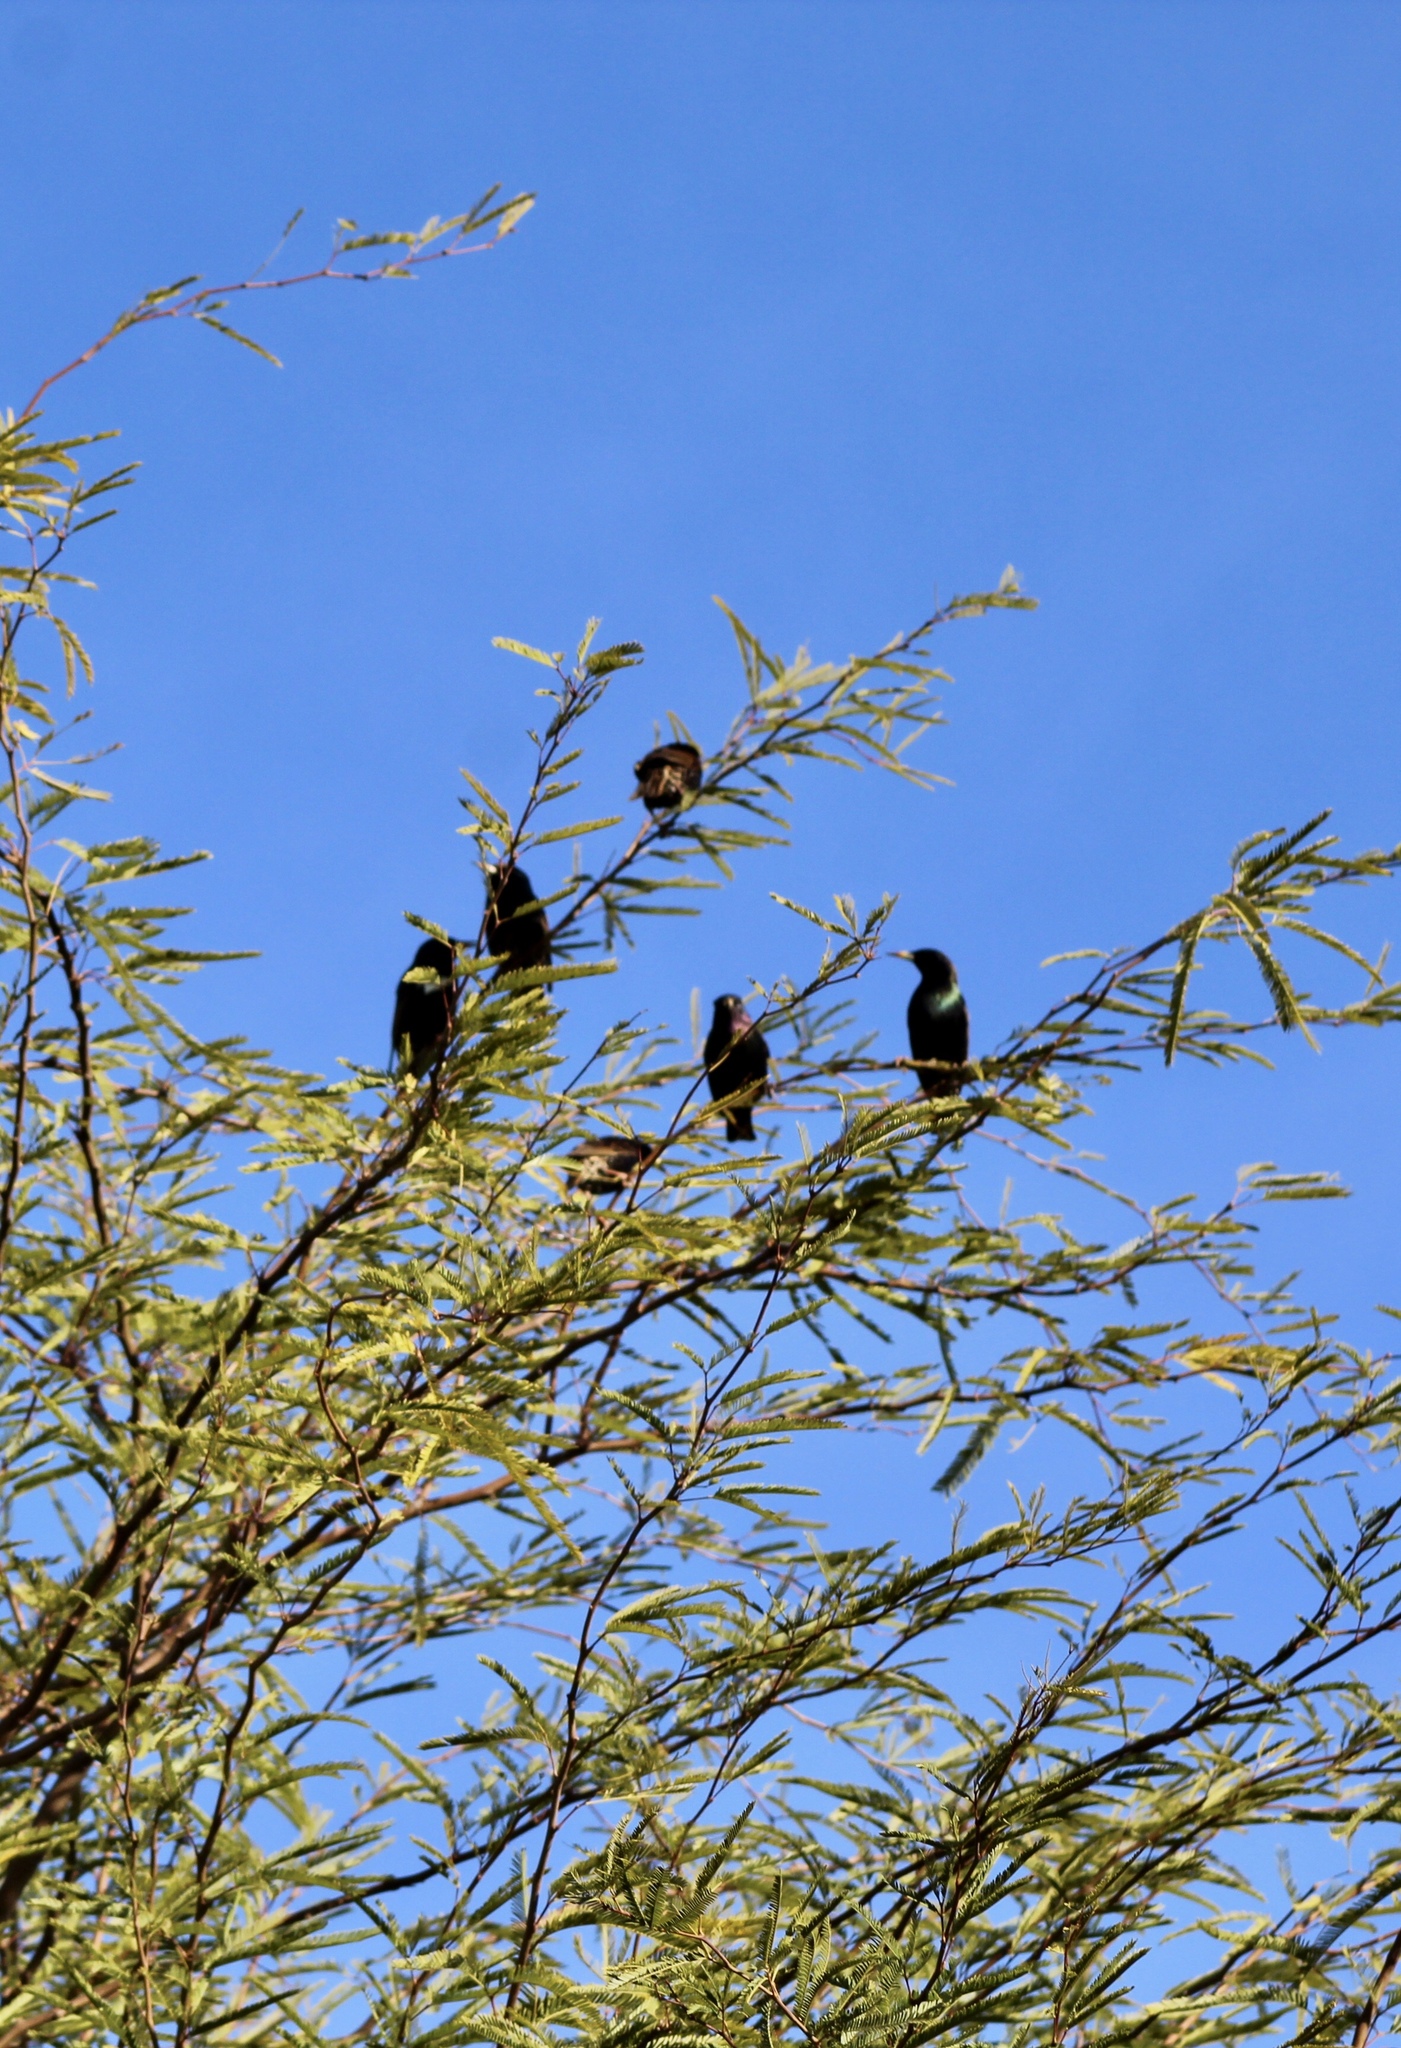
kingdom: Animalia
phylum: Chordata
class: Aves
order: Passeriformes
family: Sturnidae
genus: Sturnus
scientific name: Sturnus vulgaris
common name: Common starling
